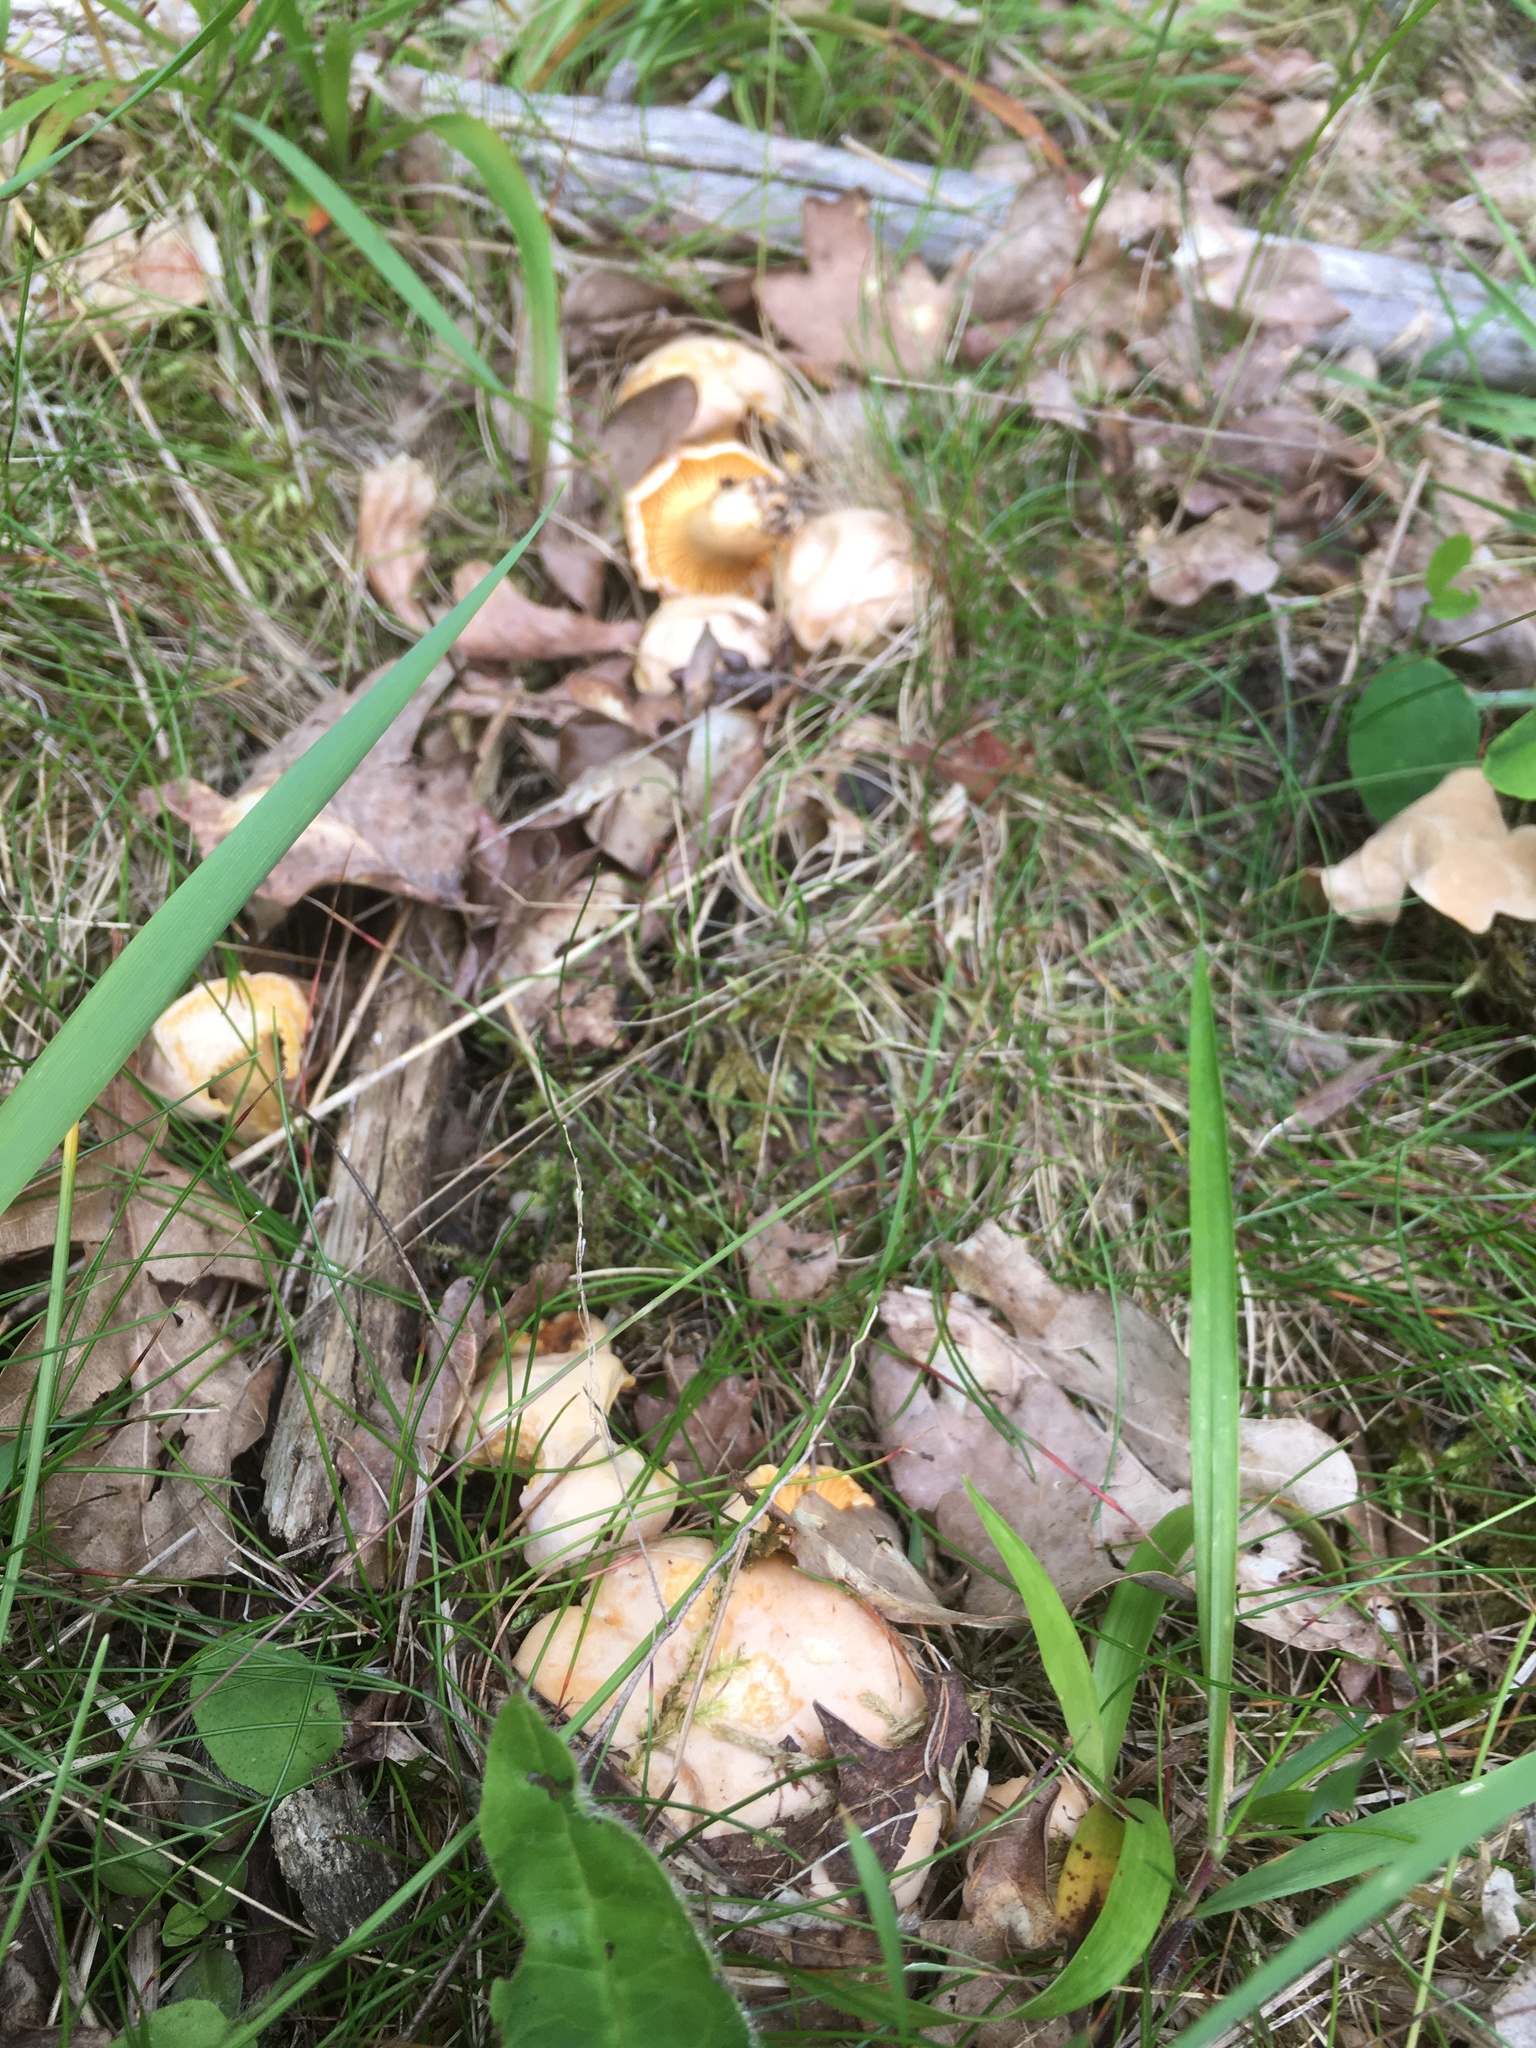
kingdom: Fungi
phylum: Basidiomycota
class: Agaricomycetes
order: Cantharellales
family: Hydnaceae
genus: Cantharellus
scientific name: Cantharellus pallens
